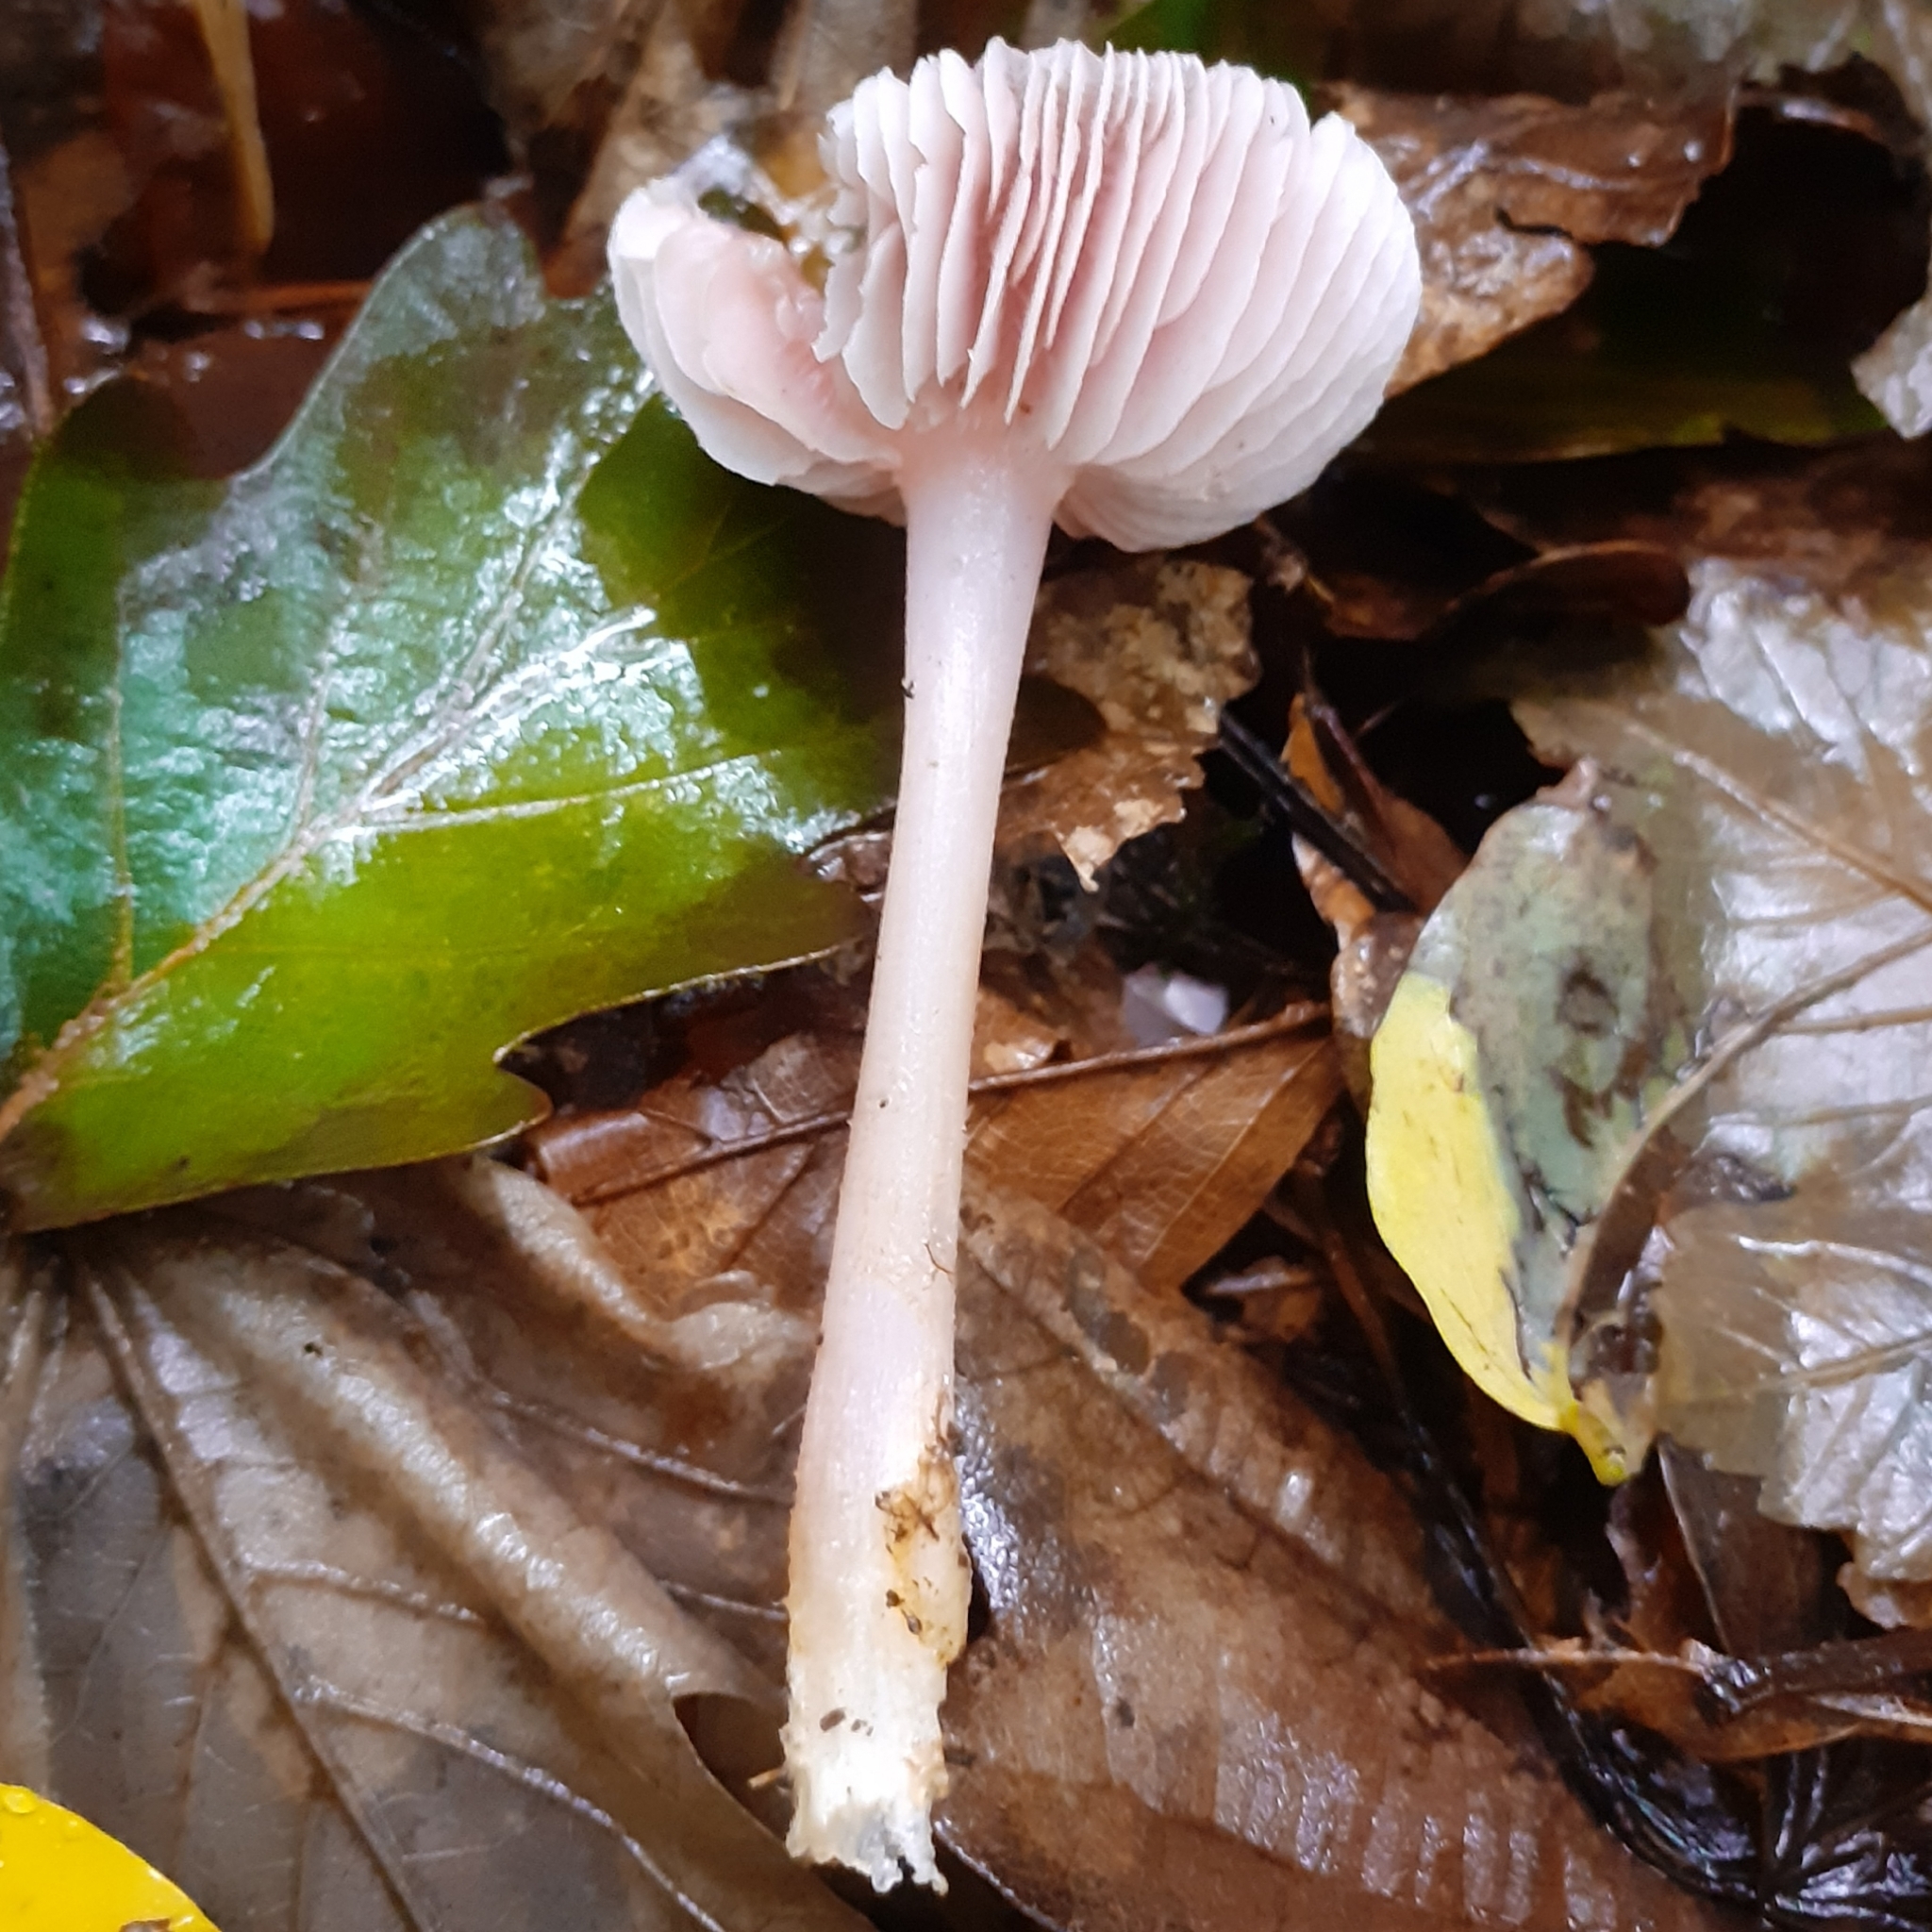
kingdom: Fungi
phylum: Basidiomycota
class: Agaricomycetes
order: Agaricales
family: Mycenaceae
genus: Mycena
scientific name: Mycena rosea
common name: Rosy bonnet
